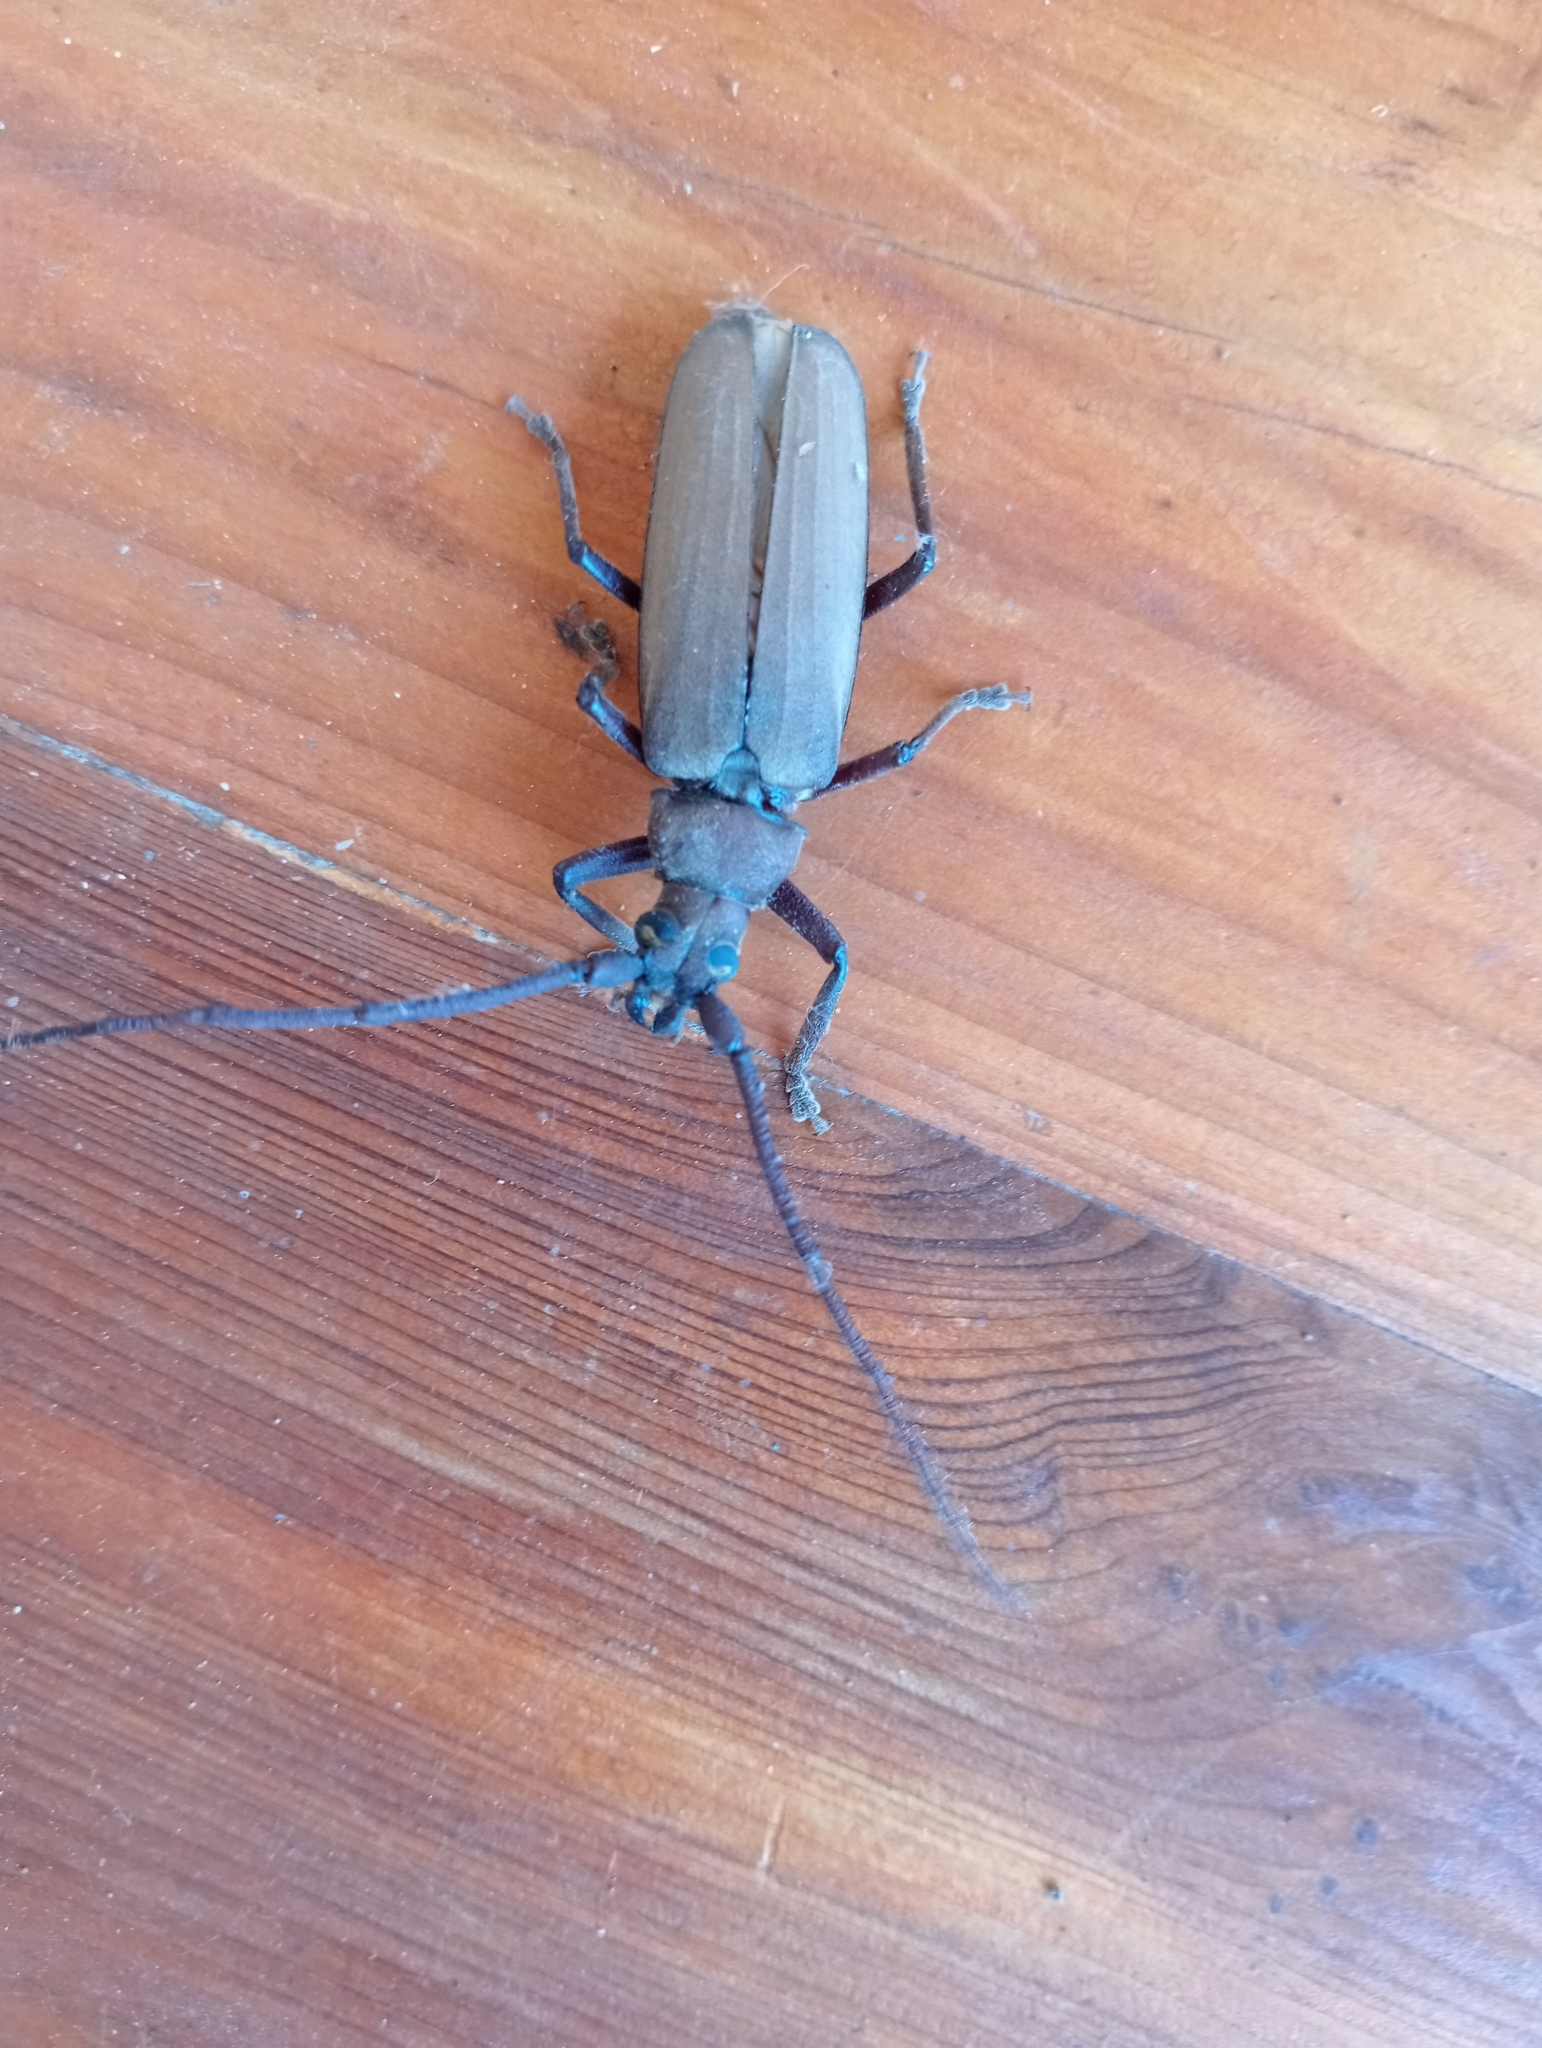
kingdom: Animalia
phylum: Arthropoda
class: Insecta
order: Coleoptera
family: Cerambycidae
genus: Aegosoma
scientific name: Aegosoma scabricorne
